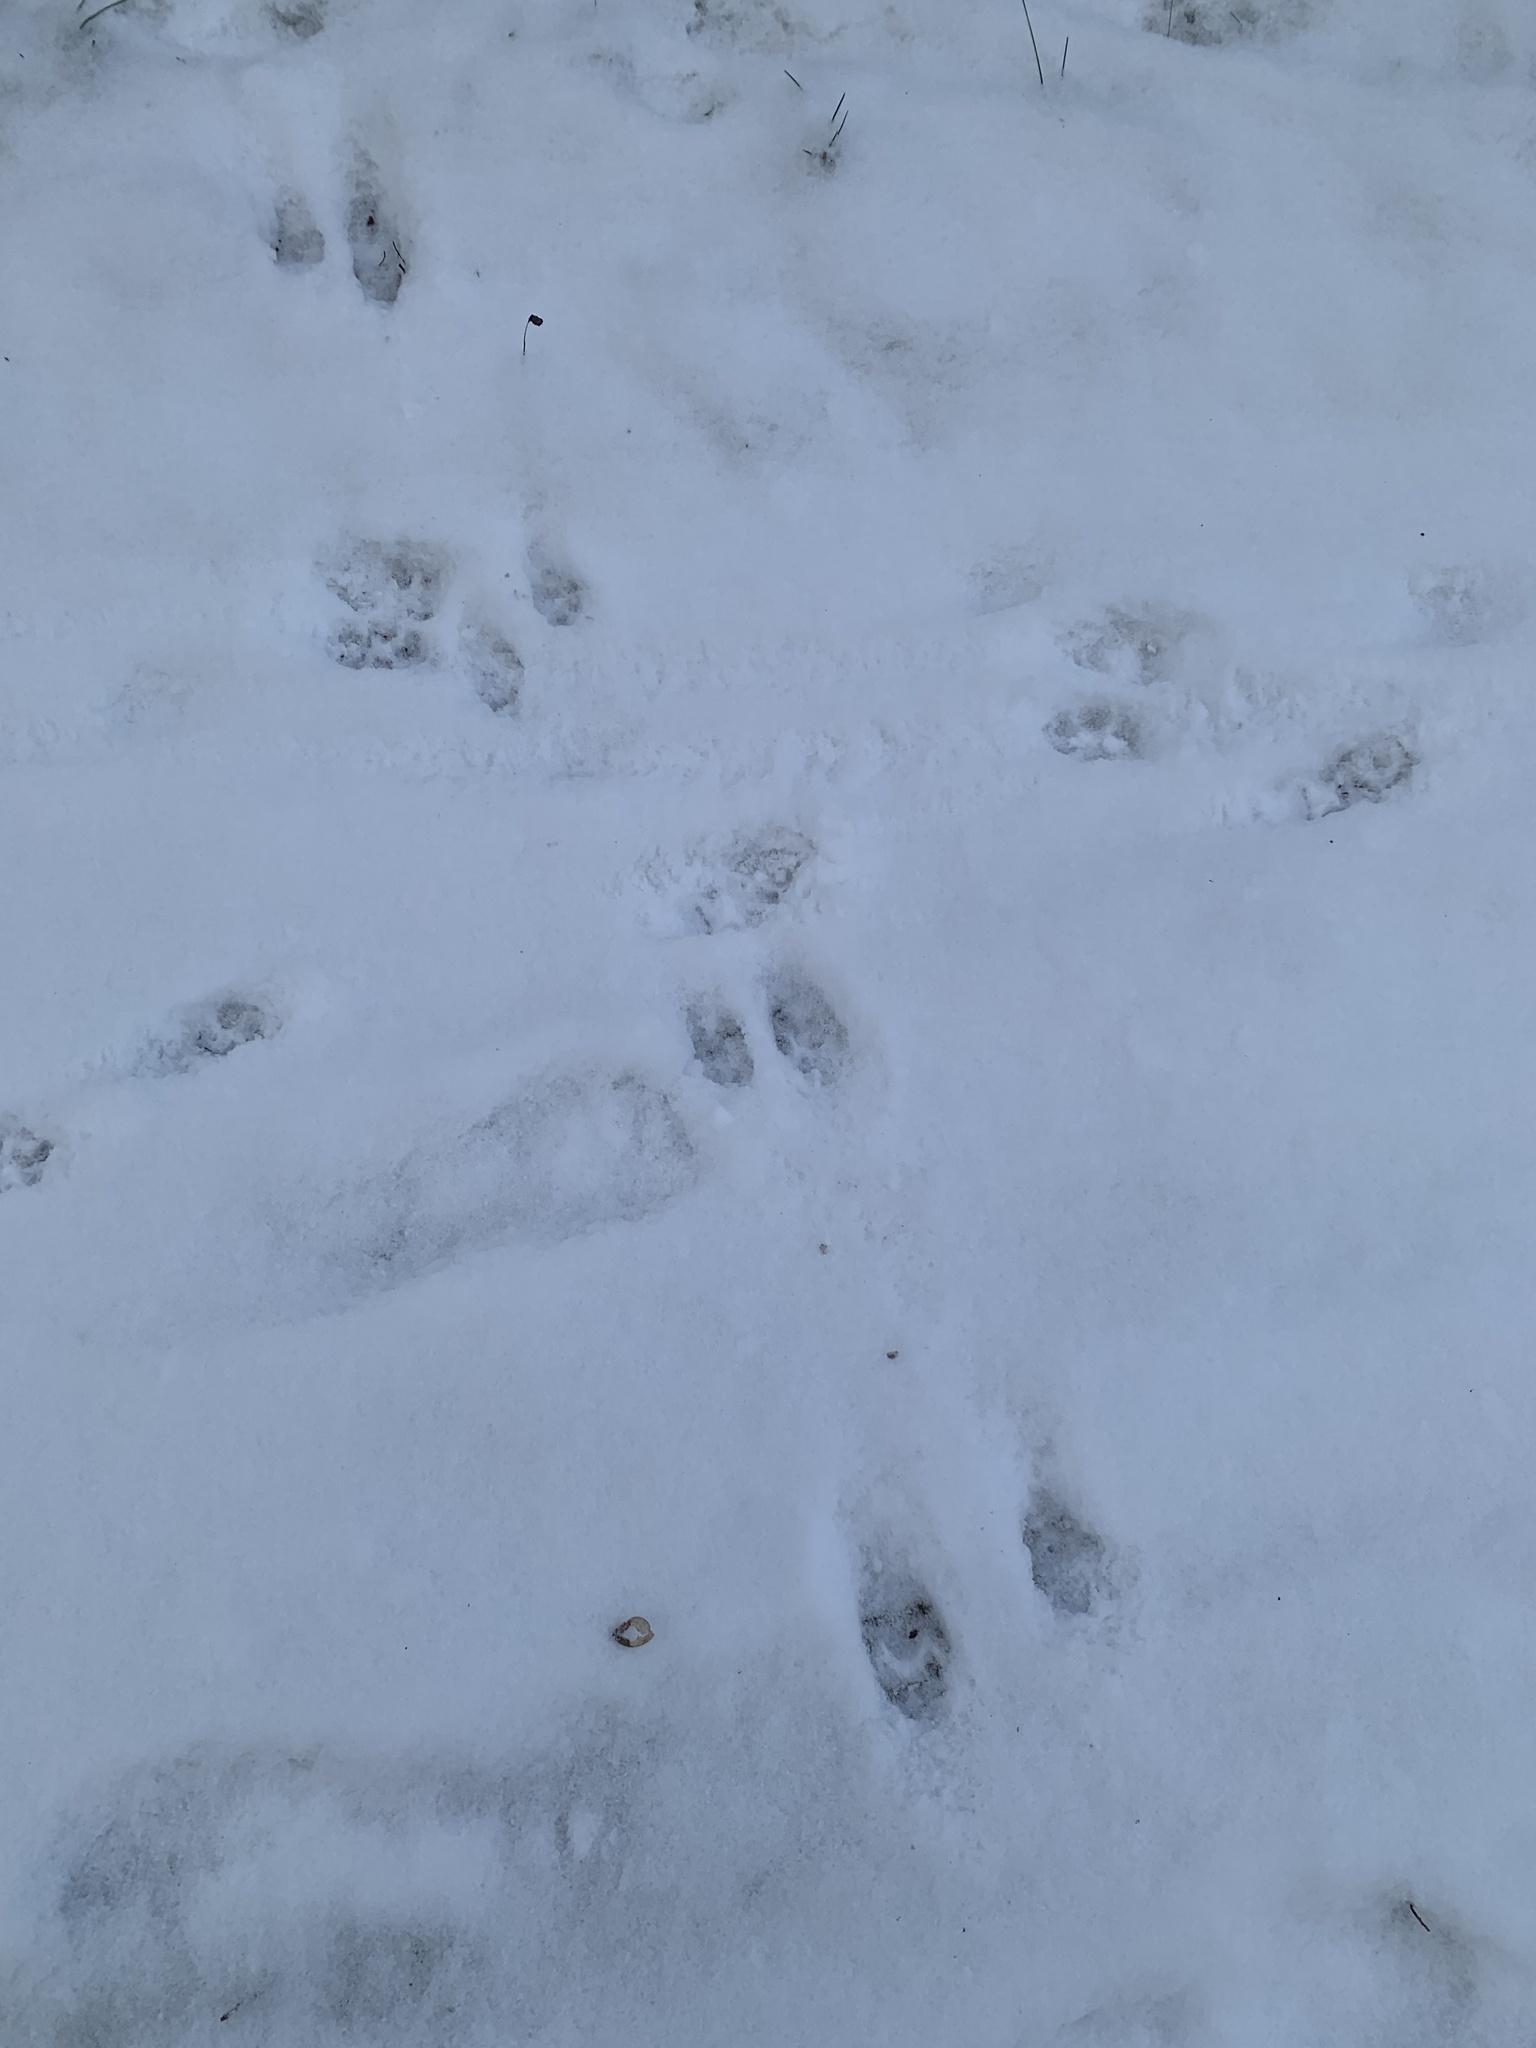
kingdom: Animalia
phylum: Chordata
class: Mammalia
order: Carnivora
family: Procyonidae
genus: Procyon
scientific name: Procyon lotor
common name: Raccoon
